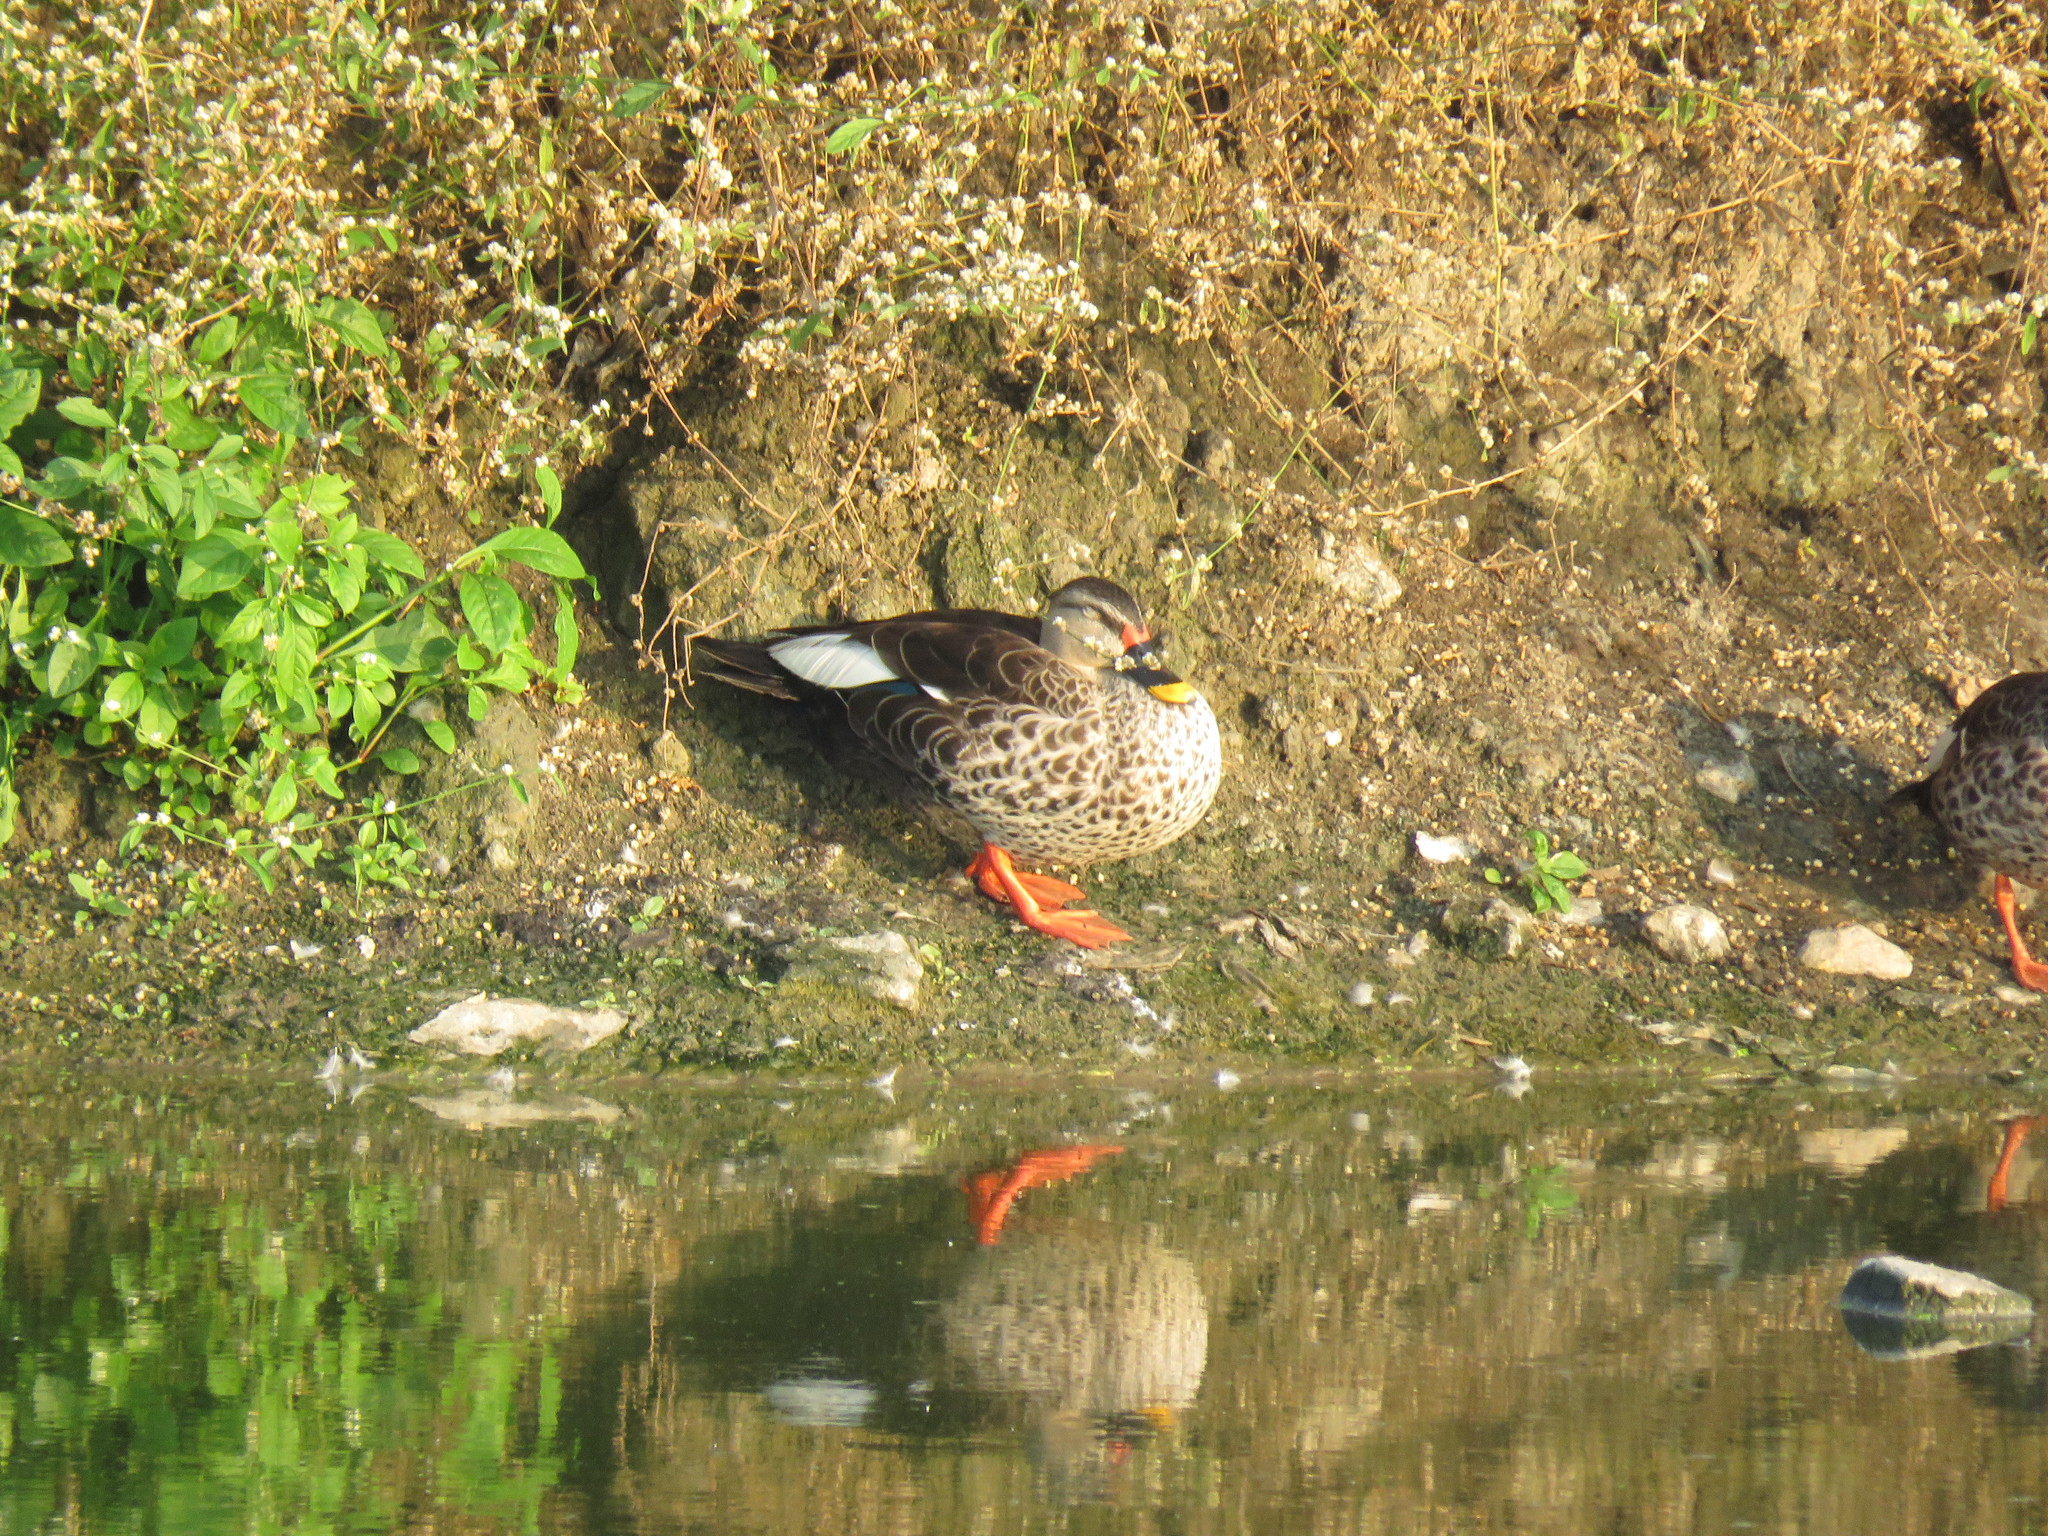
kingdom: Animalia
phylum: Chordata
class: Aves
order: Anseriformes
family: Anatidae
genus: Anas
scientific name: Anas poecilorhyncha
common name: Indian spot-billed duck
